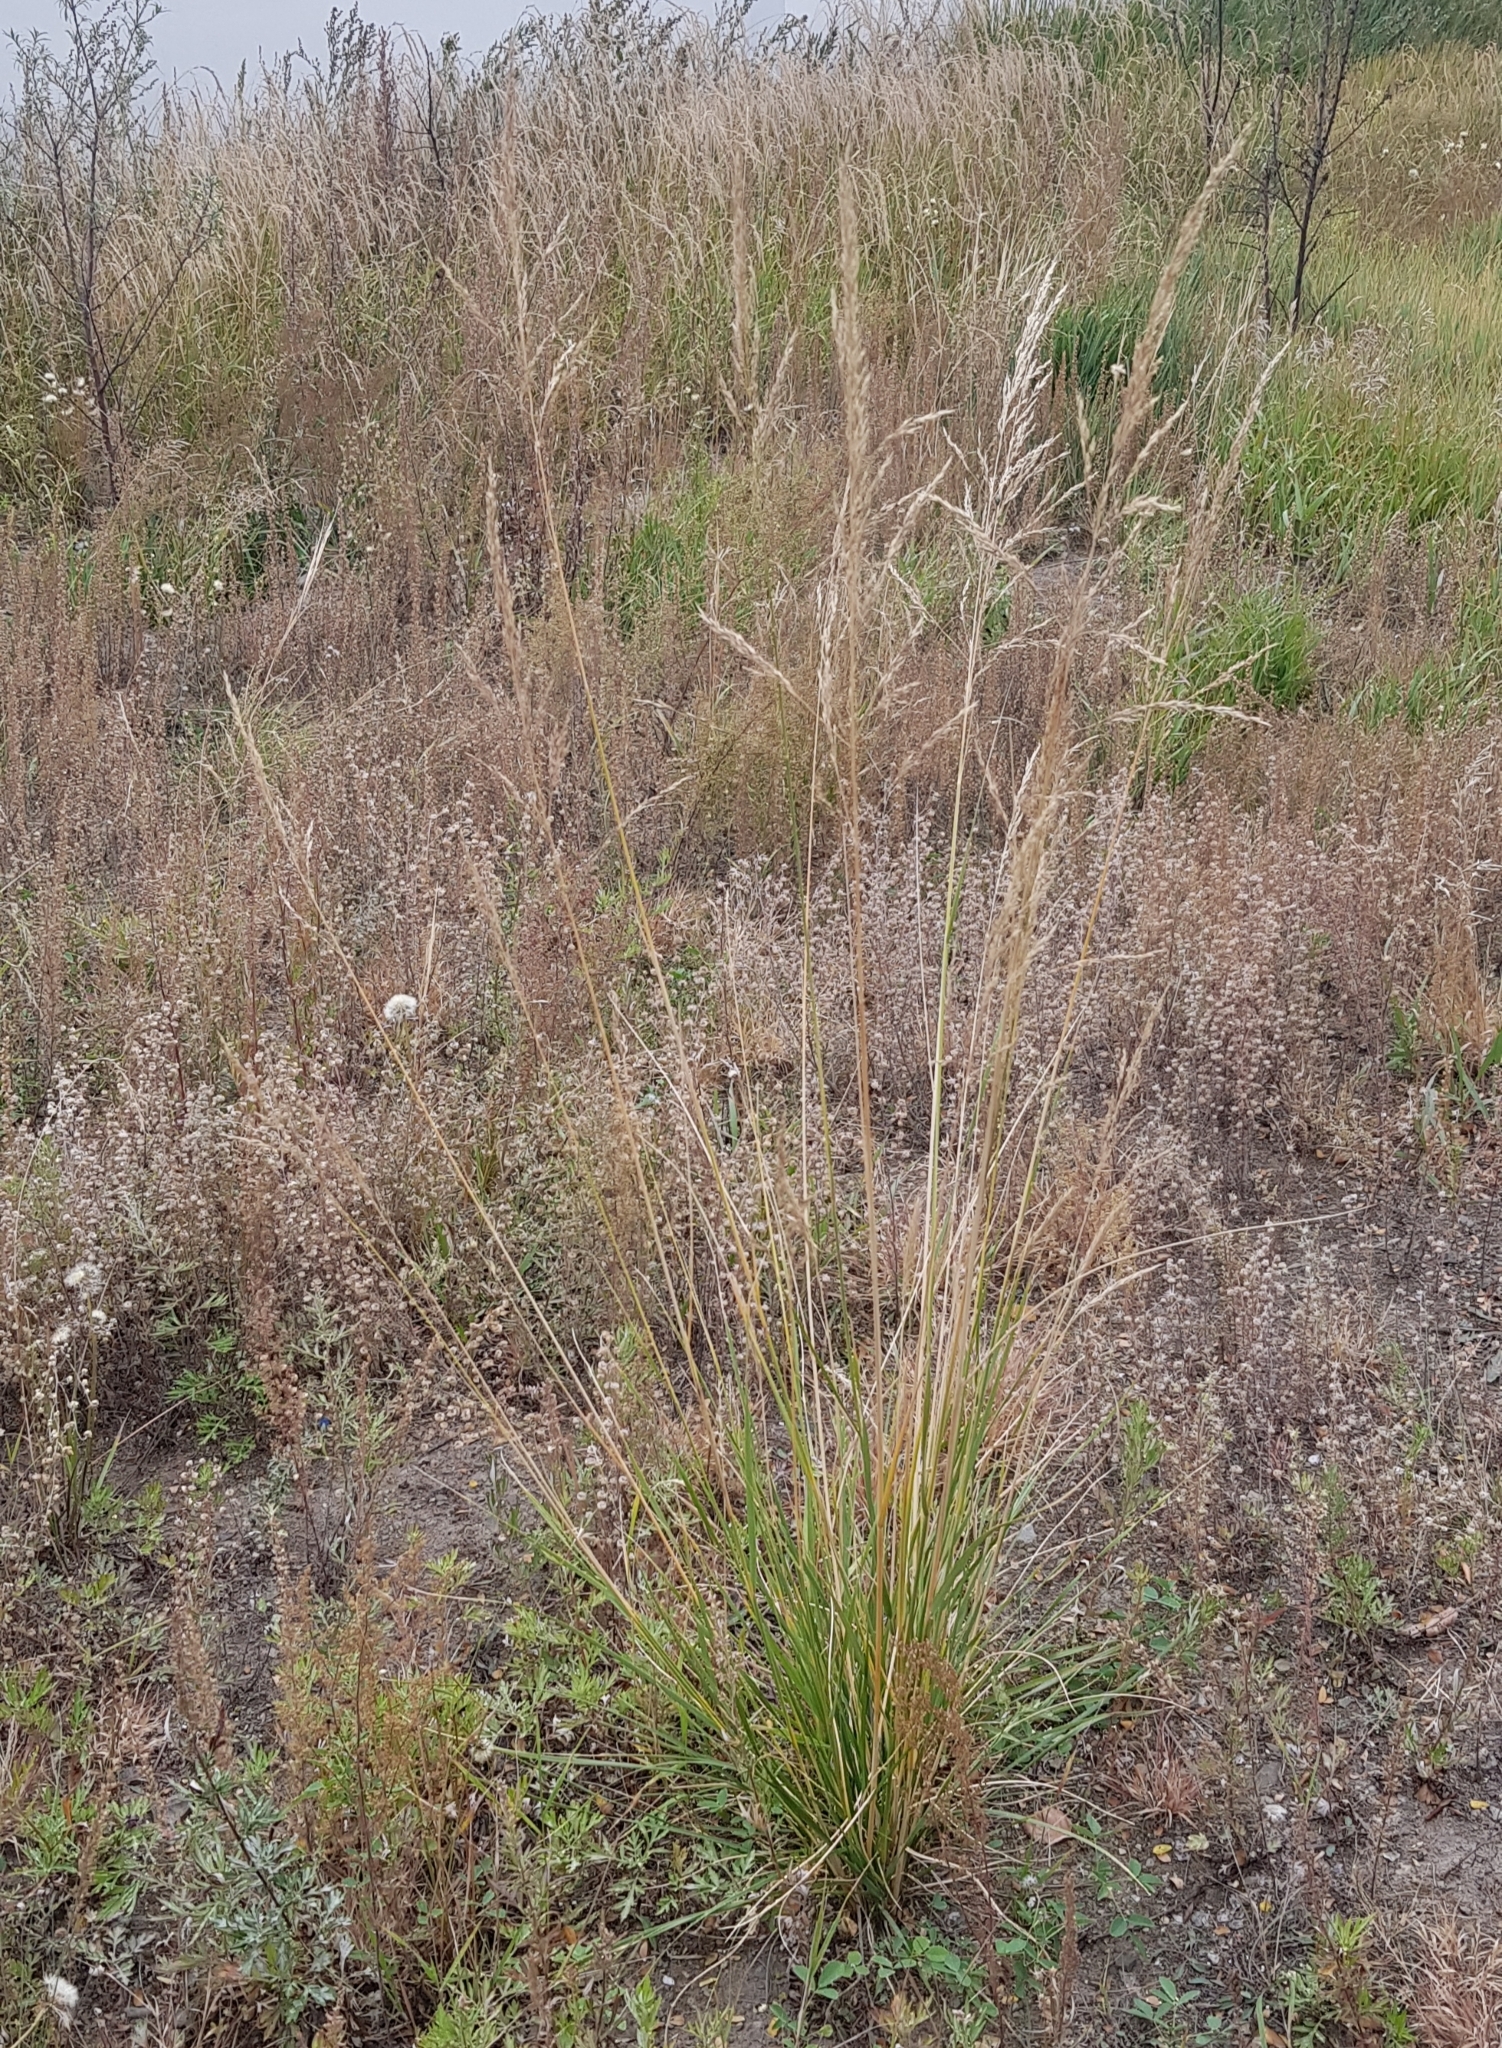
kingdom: Plantae
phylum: Tracheophyta
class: Liliopsida
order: Poales
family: Poaceae
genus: Neotrinia
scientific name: Neotrinia splendens
